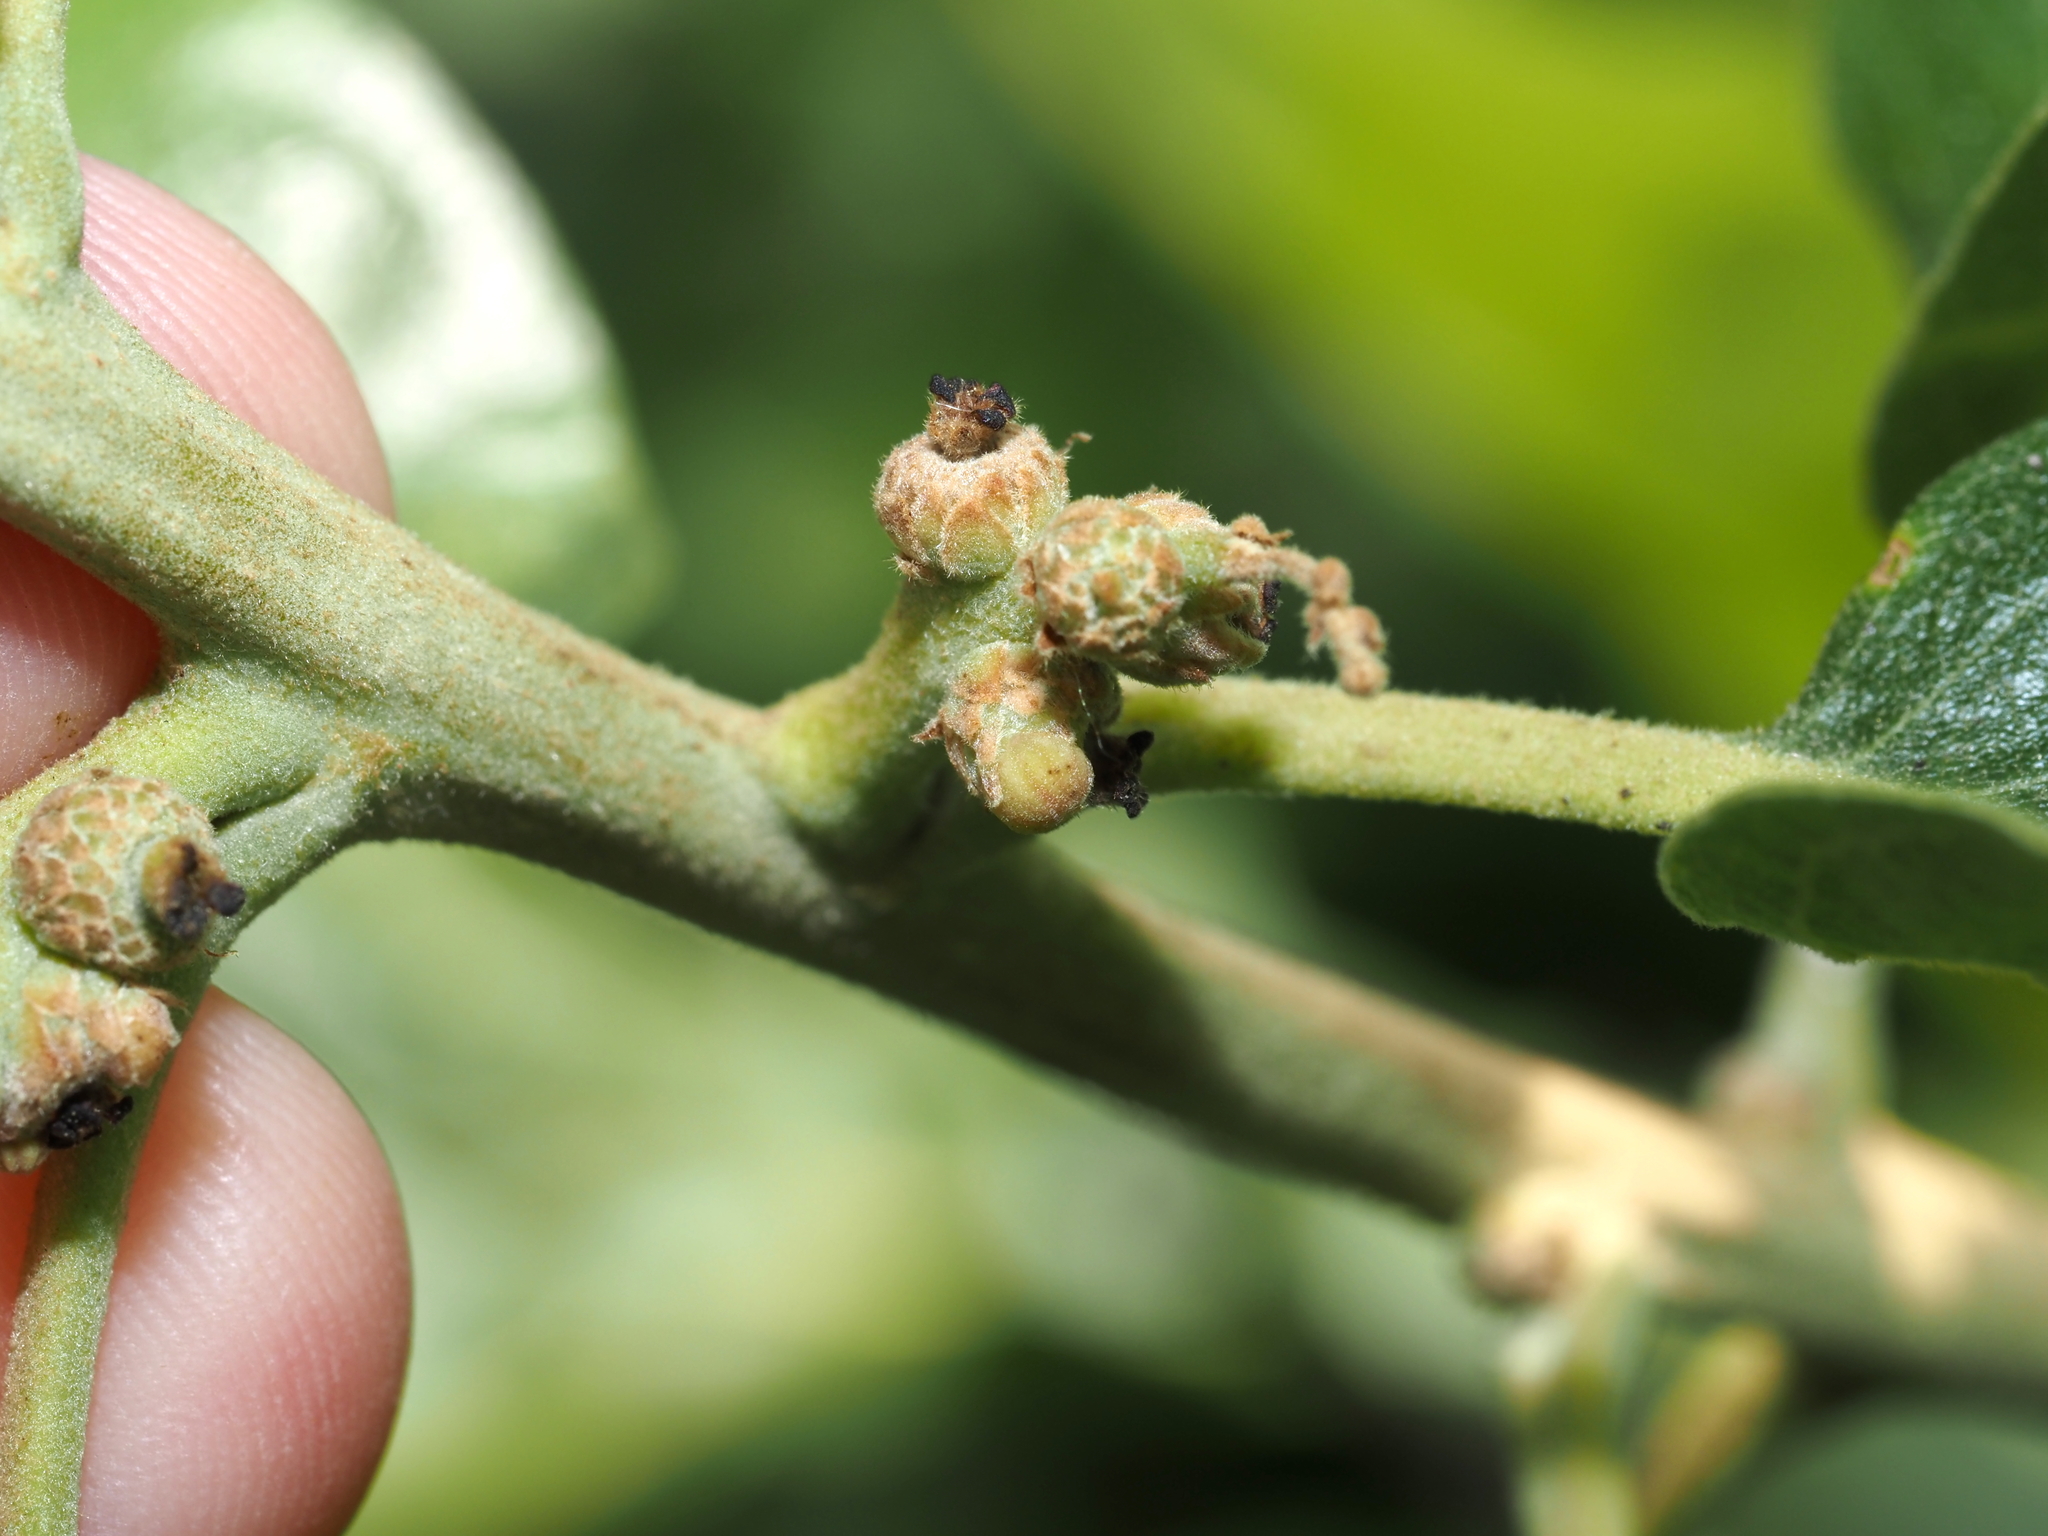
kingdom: Animalia
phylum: Arthropoda
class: Insecta
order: Hymenoptera
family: Cynipidae
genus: Callirhytis
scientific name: Callirhytis
